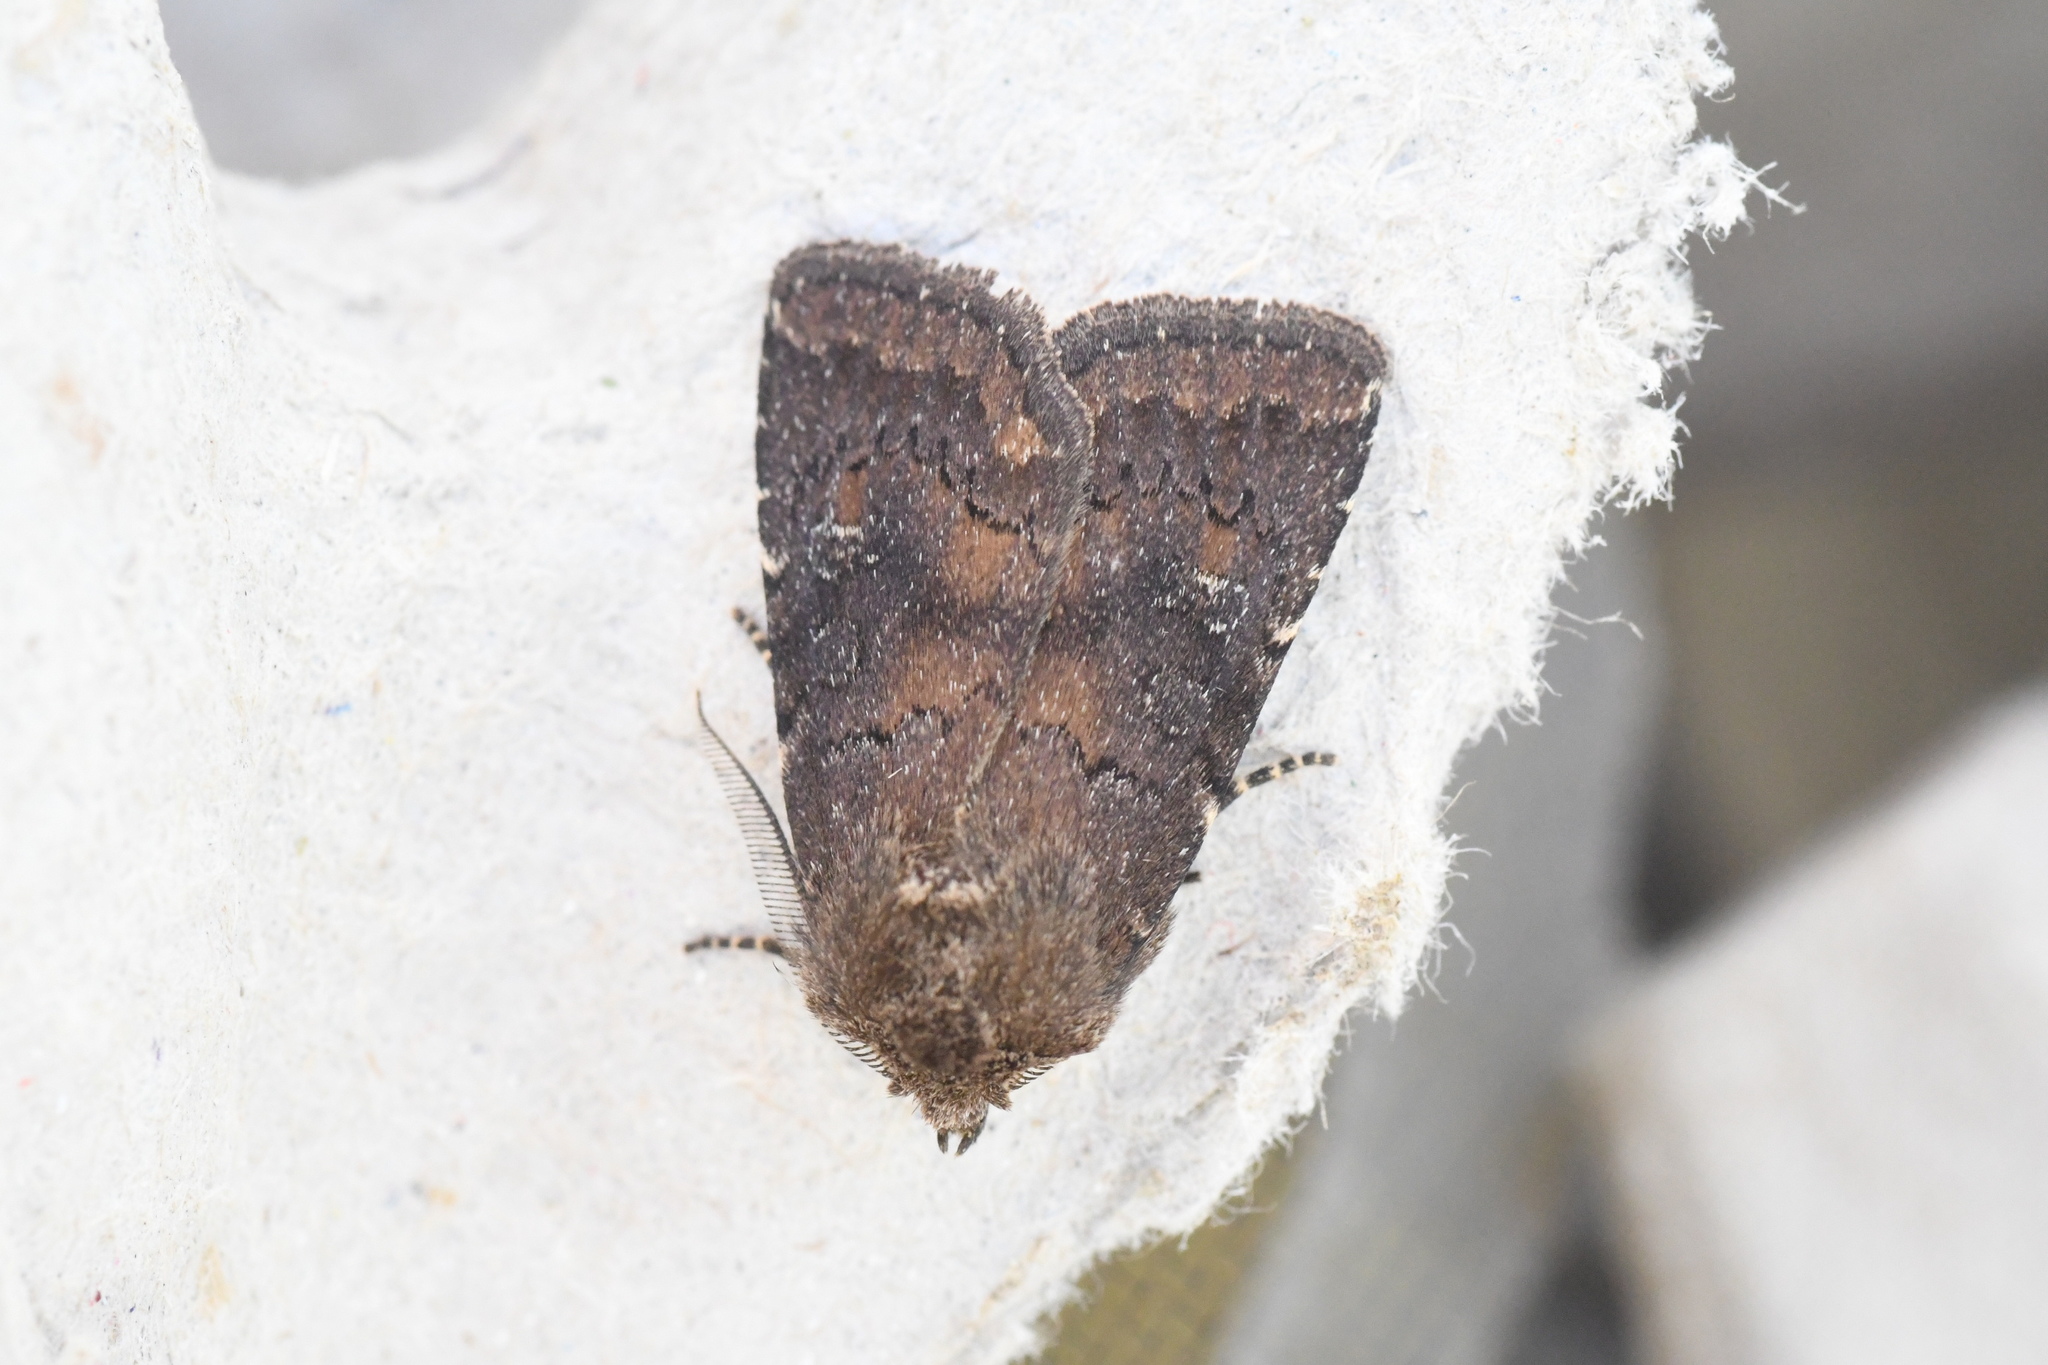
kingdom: Animalia
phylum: Arthropoda
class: Insecta
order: Lepidoptera
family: Noctuidae
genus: Charanyca
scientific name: Charanyca ferruginea
